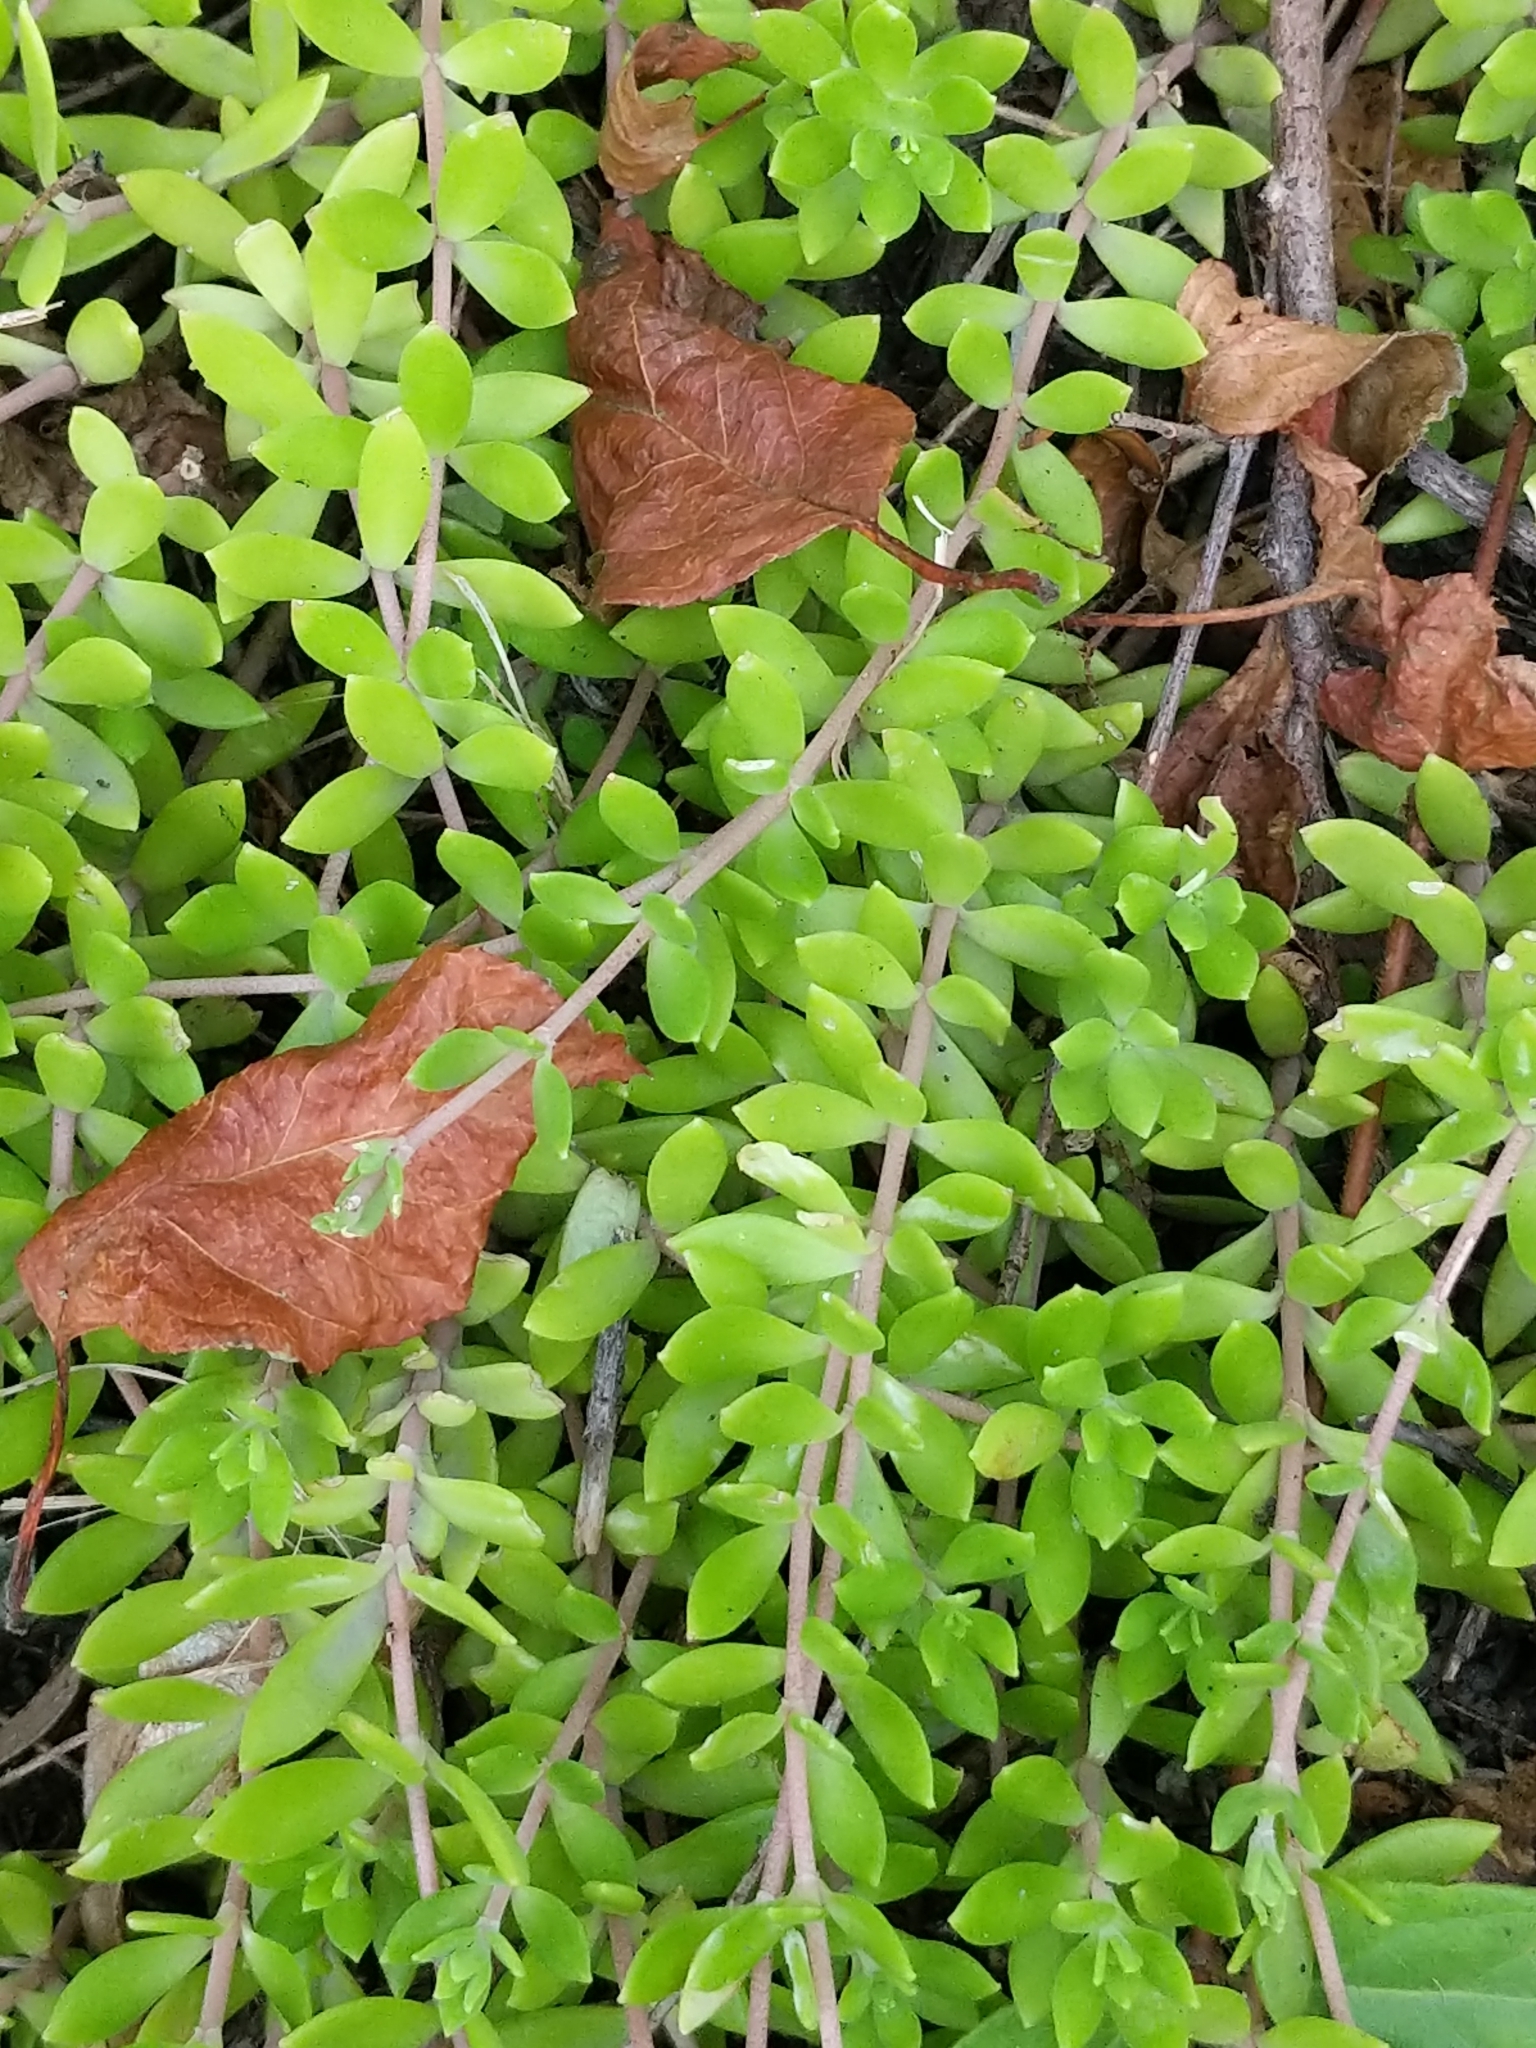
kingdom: Plantae
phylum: Tracheophyta
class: Magnoliopsida
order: Saxifragales
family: Crassulaceae
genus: Sedum
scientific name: Sedum sarmentosum
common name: Stringy stonecrop
